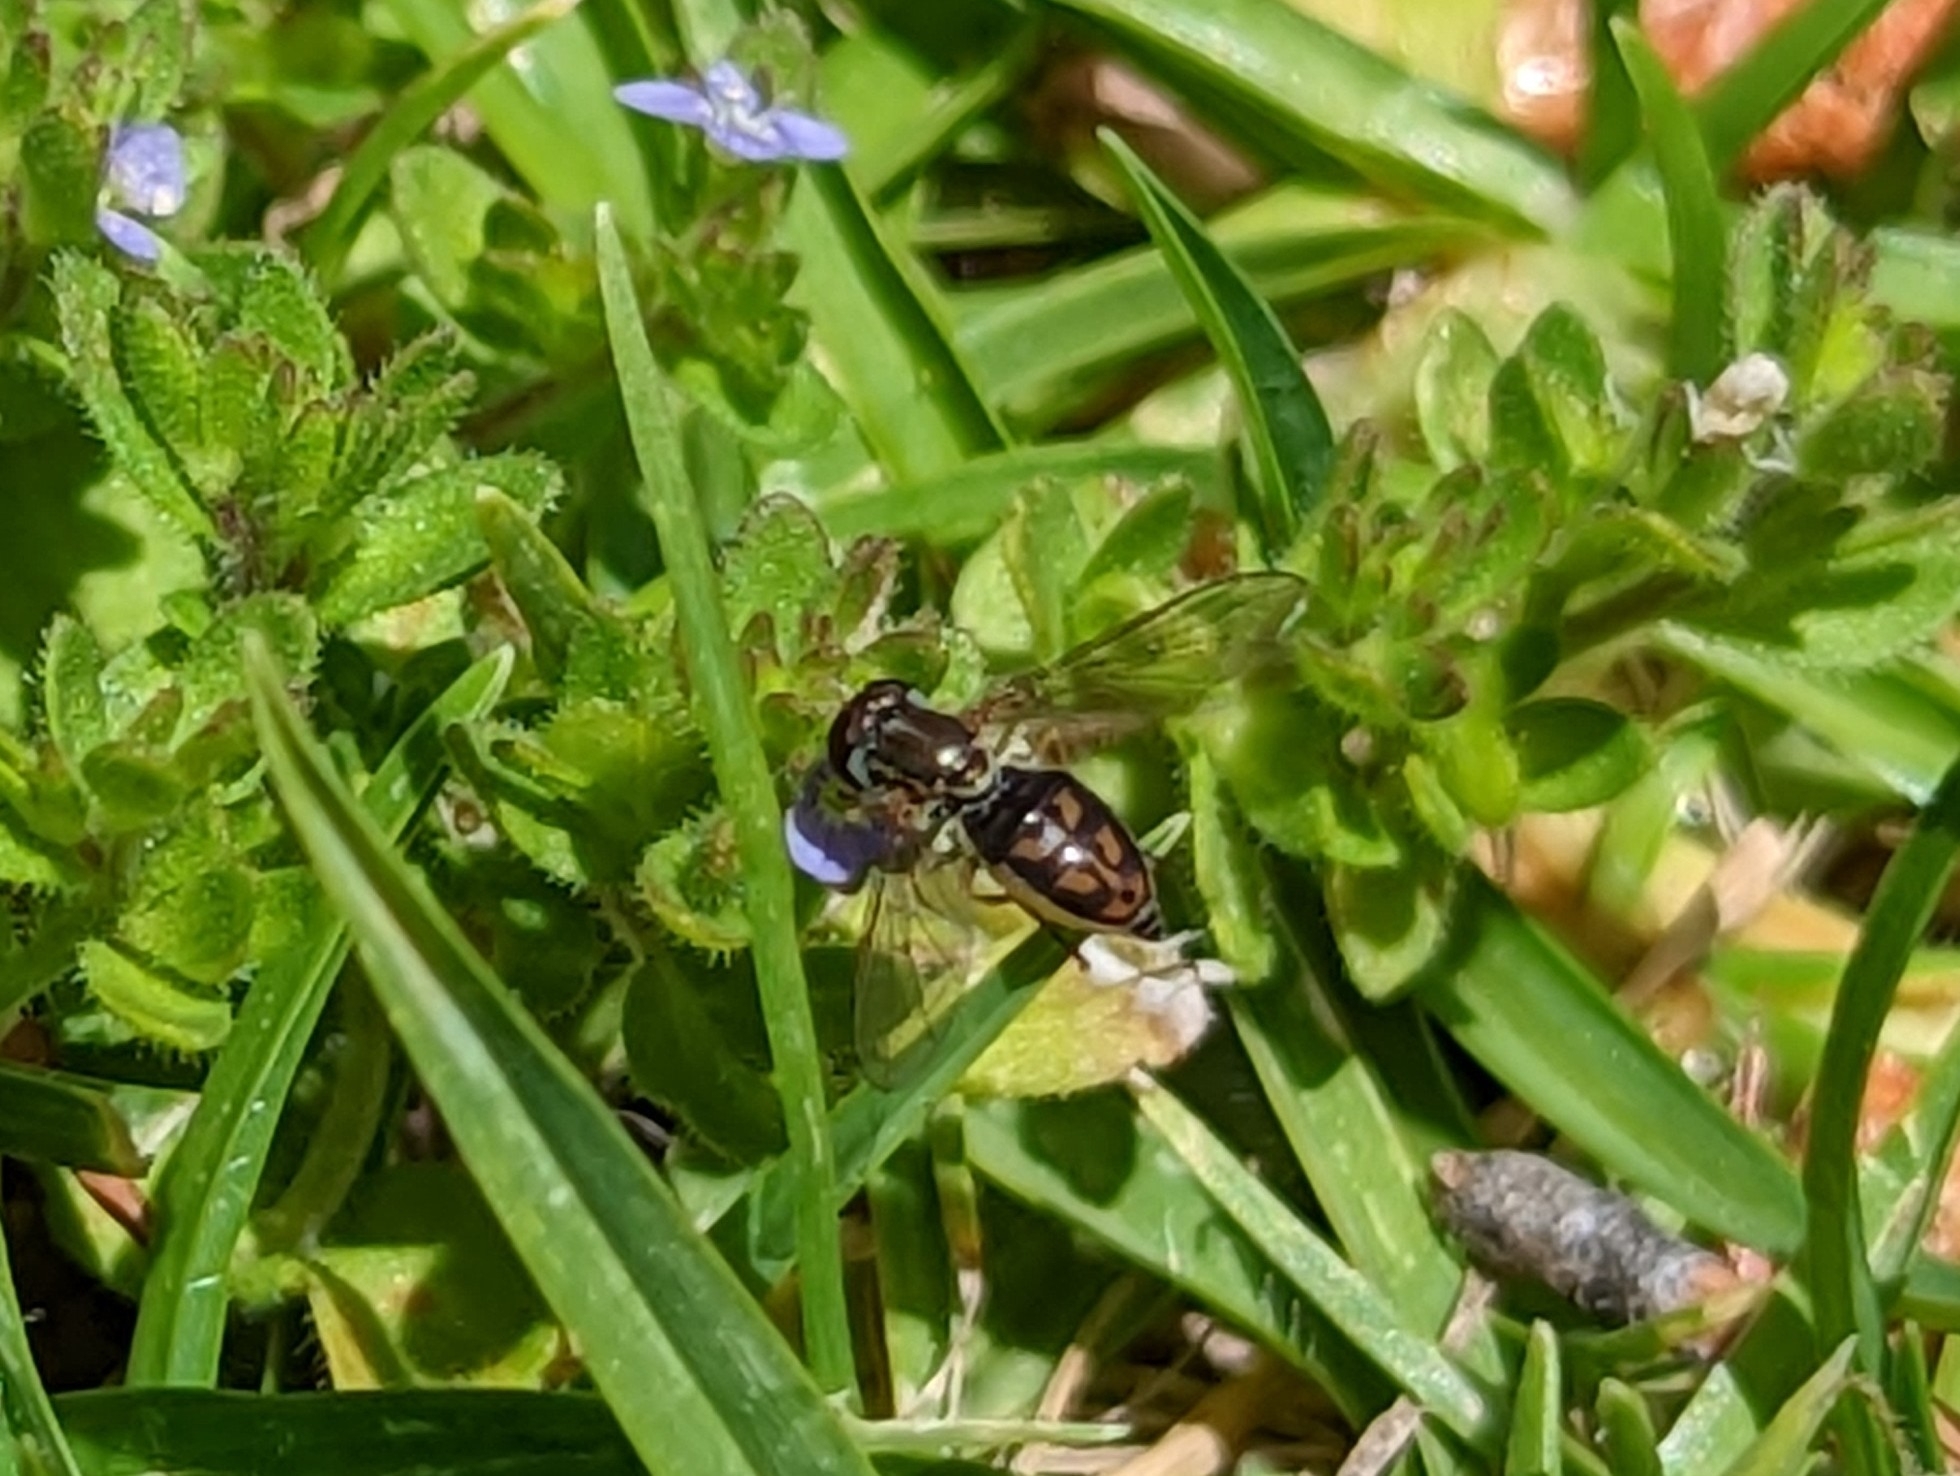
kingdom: Animalia
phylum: Arthropoda
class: Insecta
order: Diptera
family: Syrphidae
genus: Toxomerus
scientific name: Toxomerus marginatus
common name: Syrphid fly
